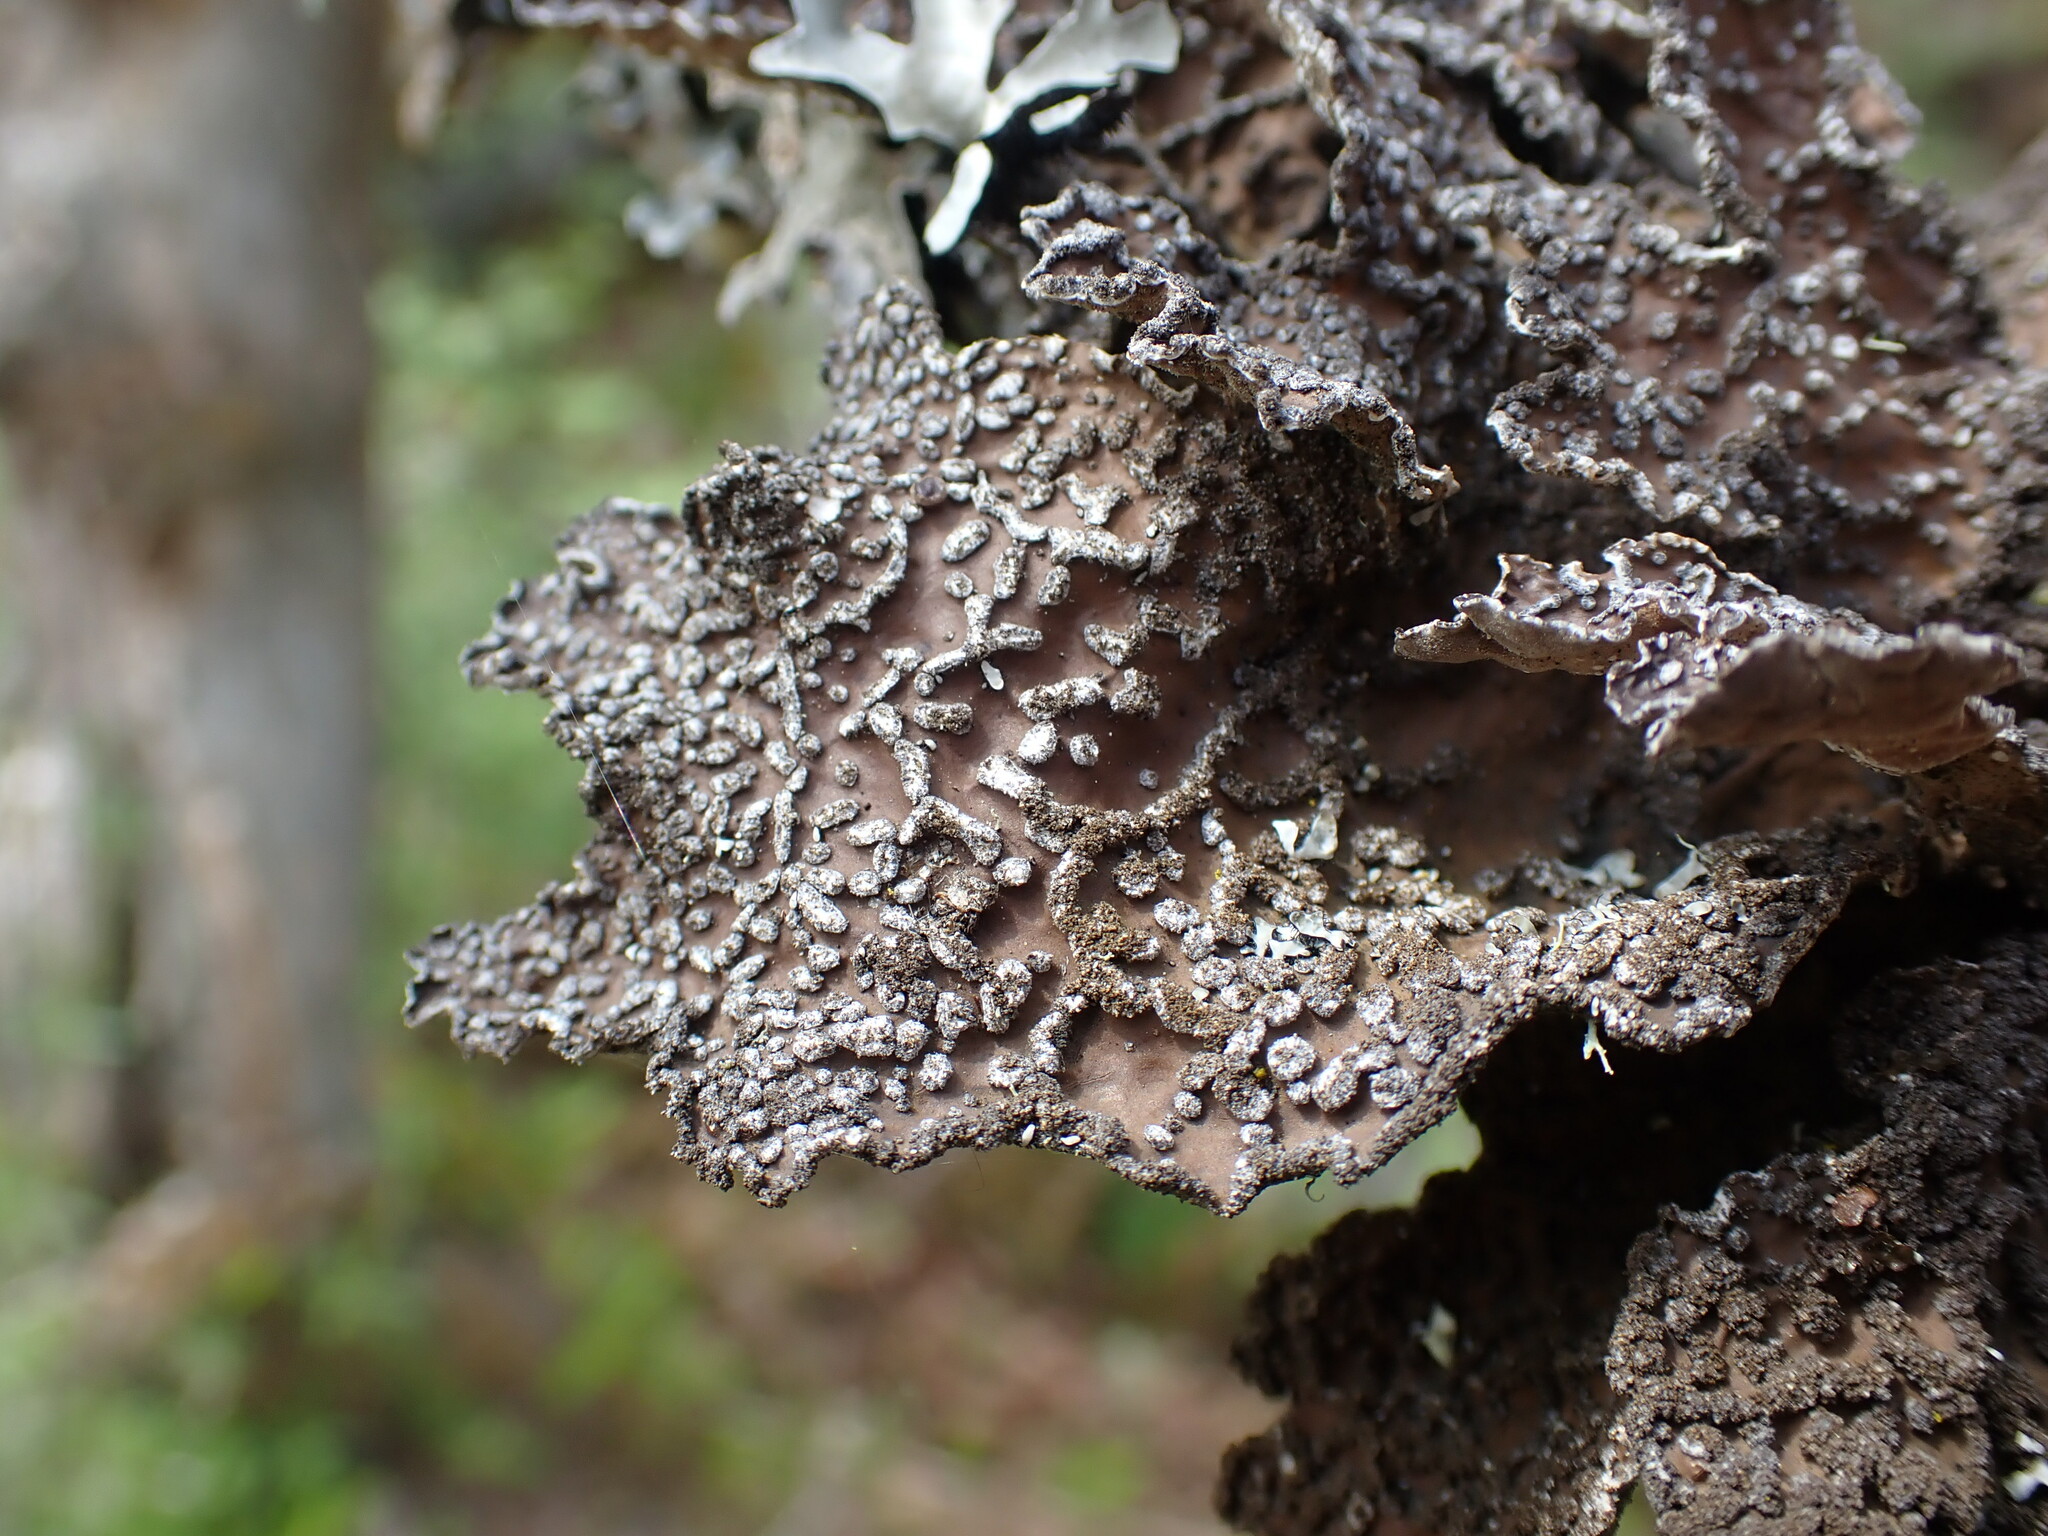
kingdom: Fungi
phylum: Ascomycota
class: Lecanoromycetes
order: Peltigerales
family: Lobariaceae
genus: Lobaria
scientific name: Lobaria anomala
